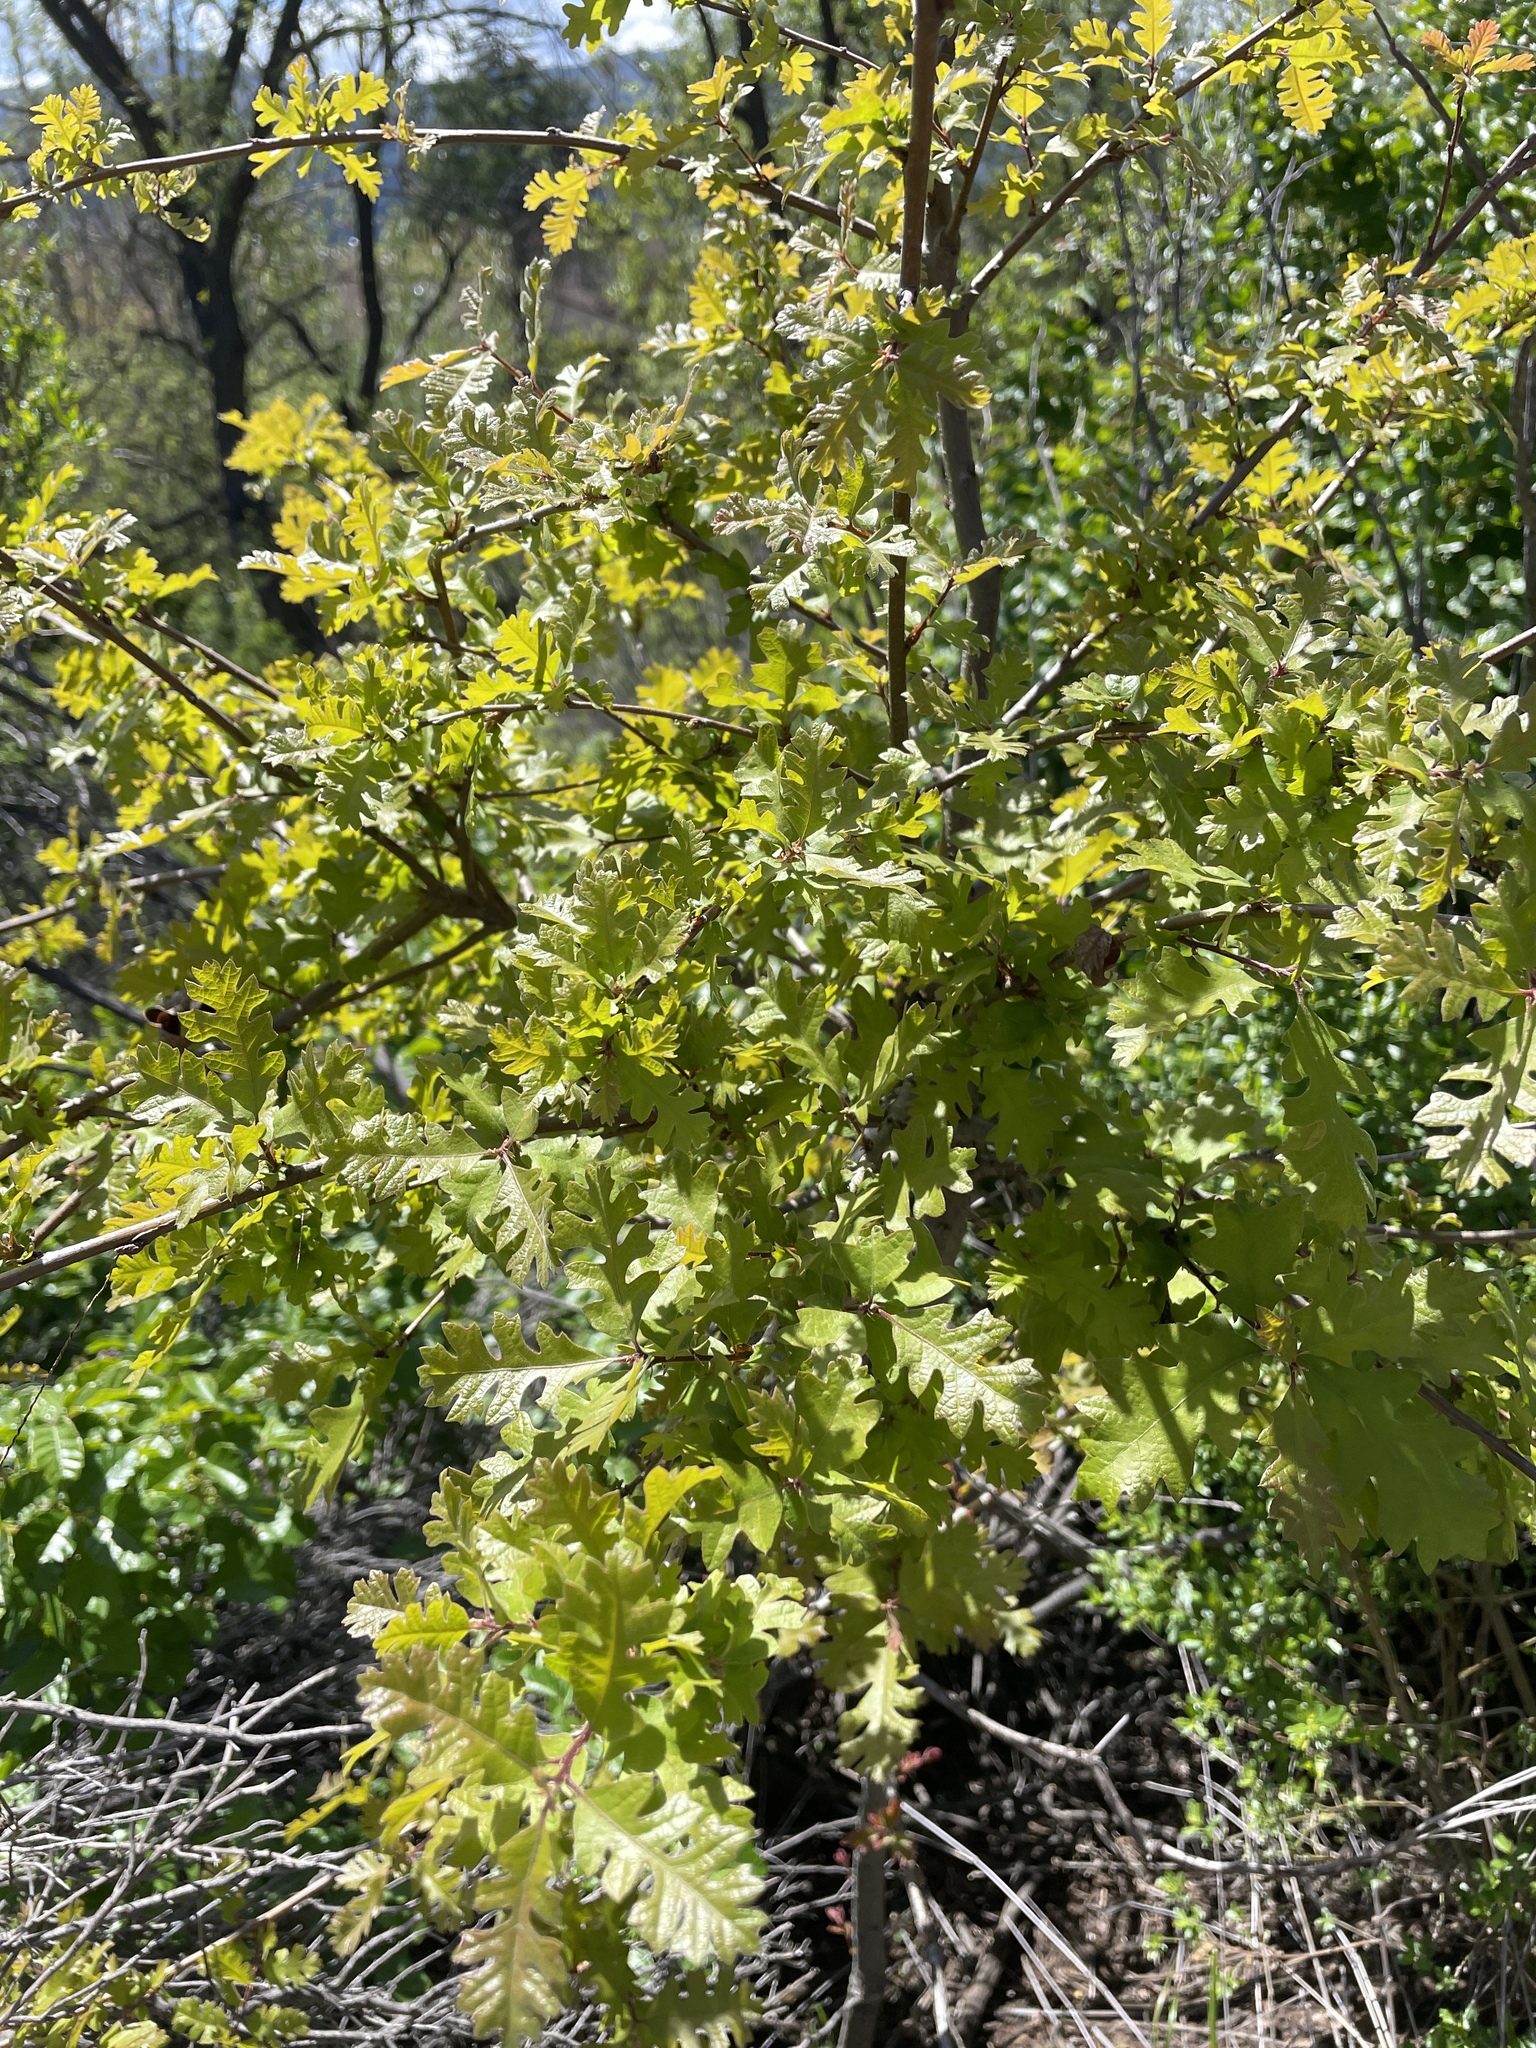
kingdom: Plantae
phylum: Tracheophyta
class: Magnoliopsida
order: Fagales
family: Fagaceae
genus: Quercus
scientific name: Quercus lobata
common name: Valley oak
